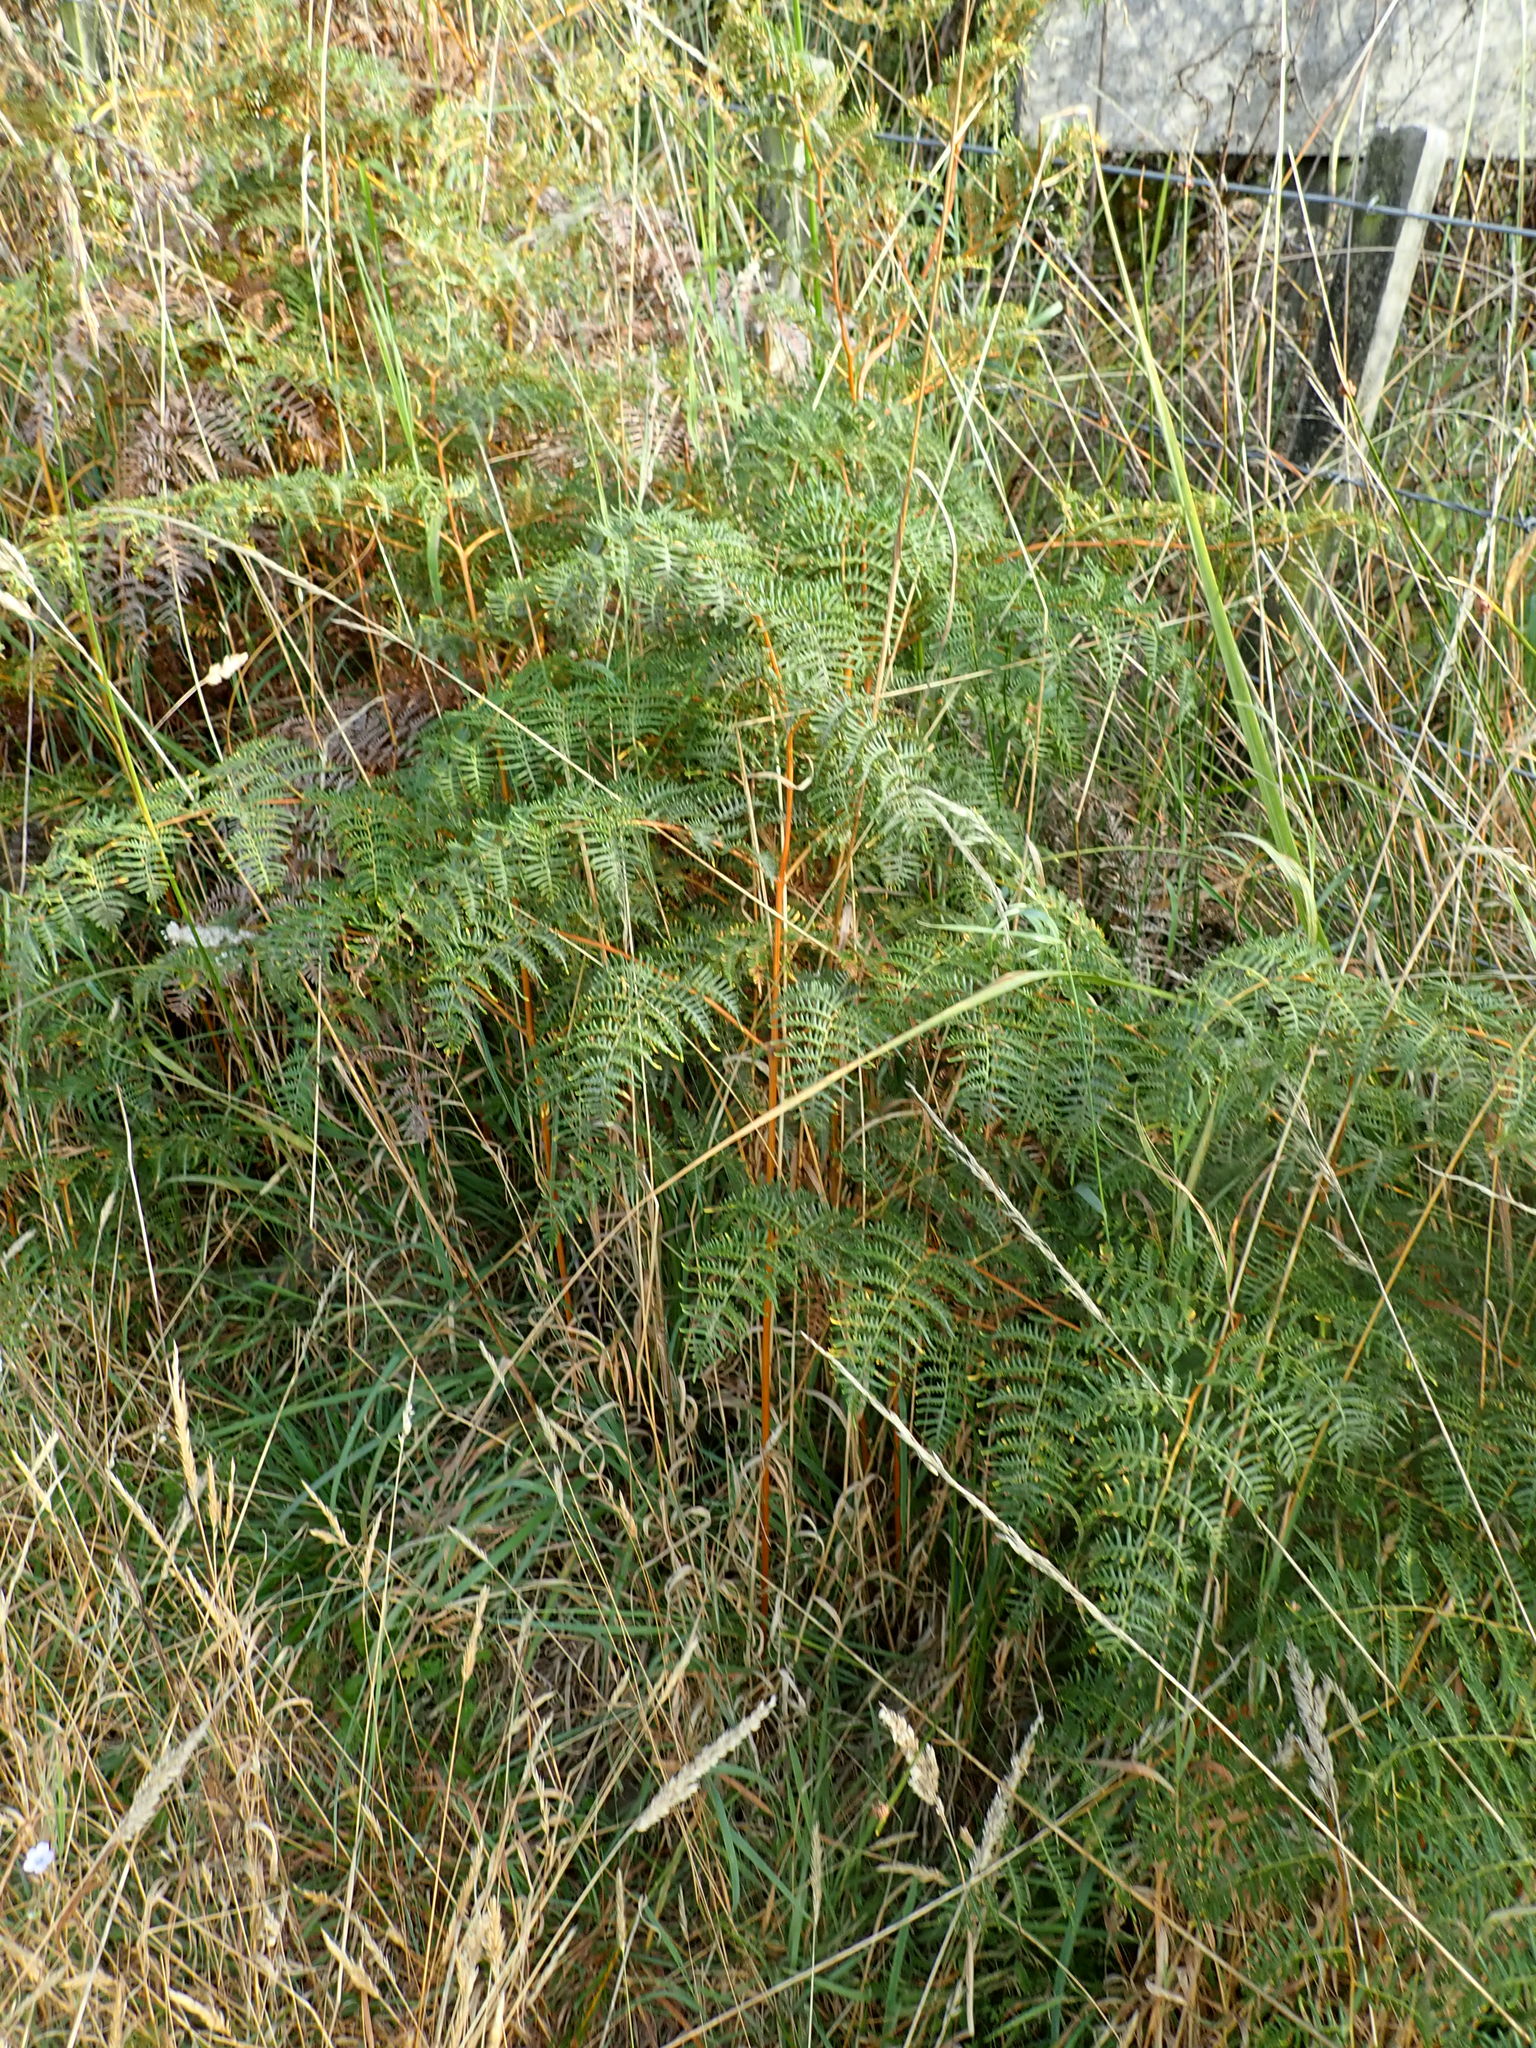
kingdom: Plantae
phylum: Tracheophyta
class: Polypodiopsida
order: Polypodiales
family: Dennstaedtiaceae
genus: Pteridium
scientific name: Pteridium esculentum
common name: Bracken fern
